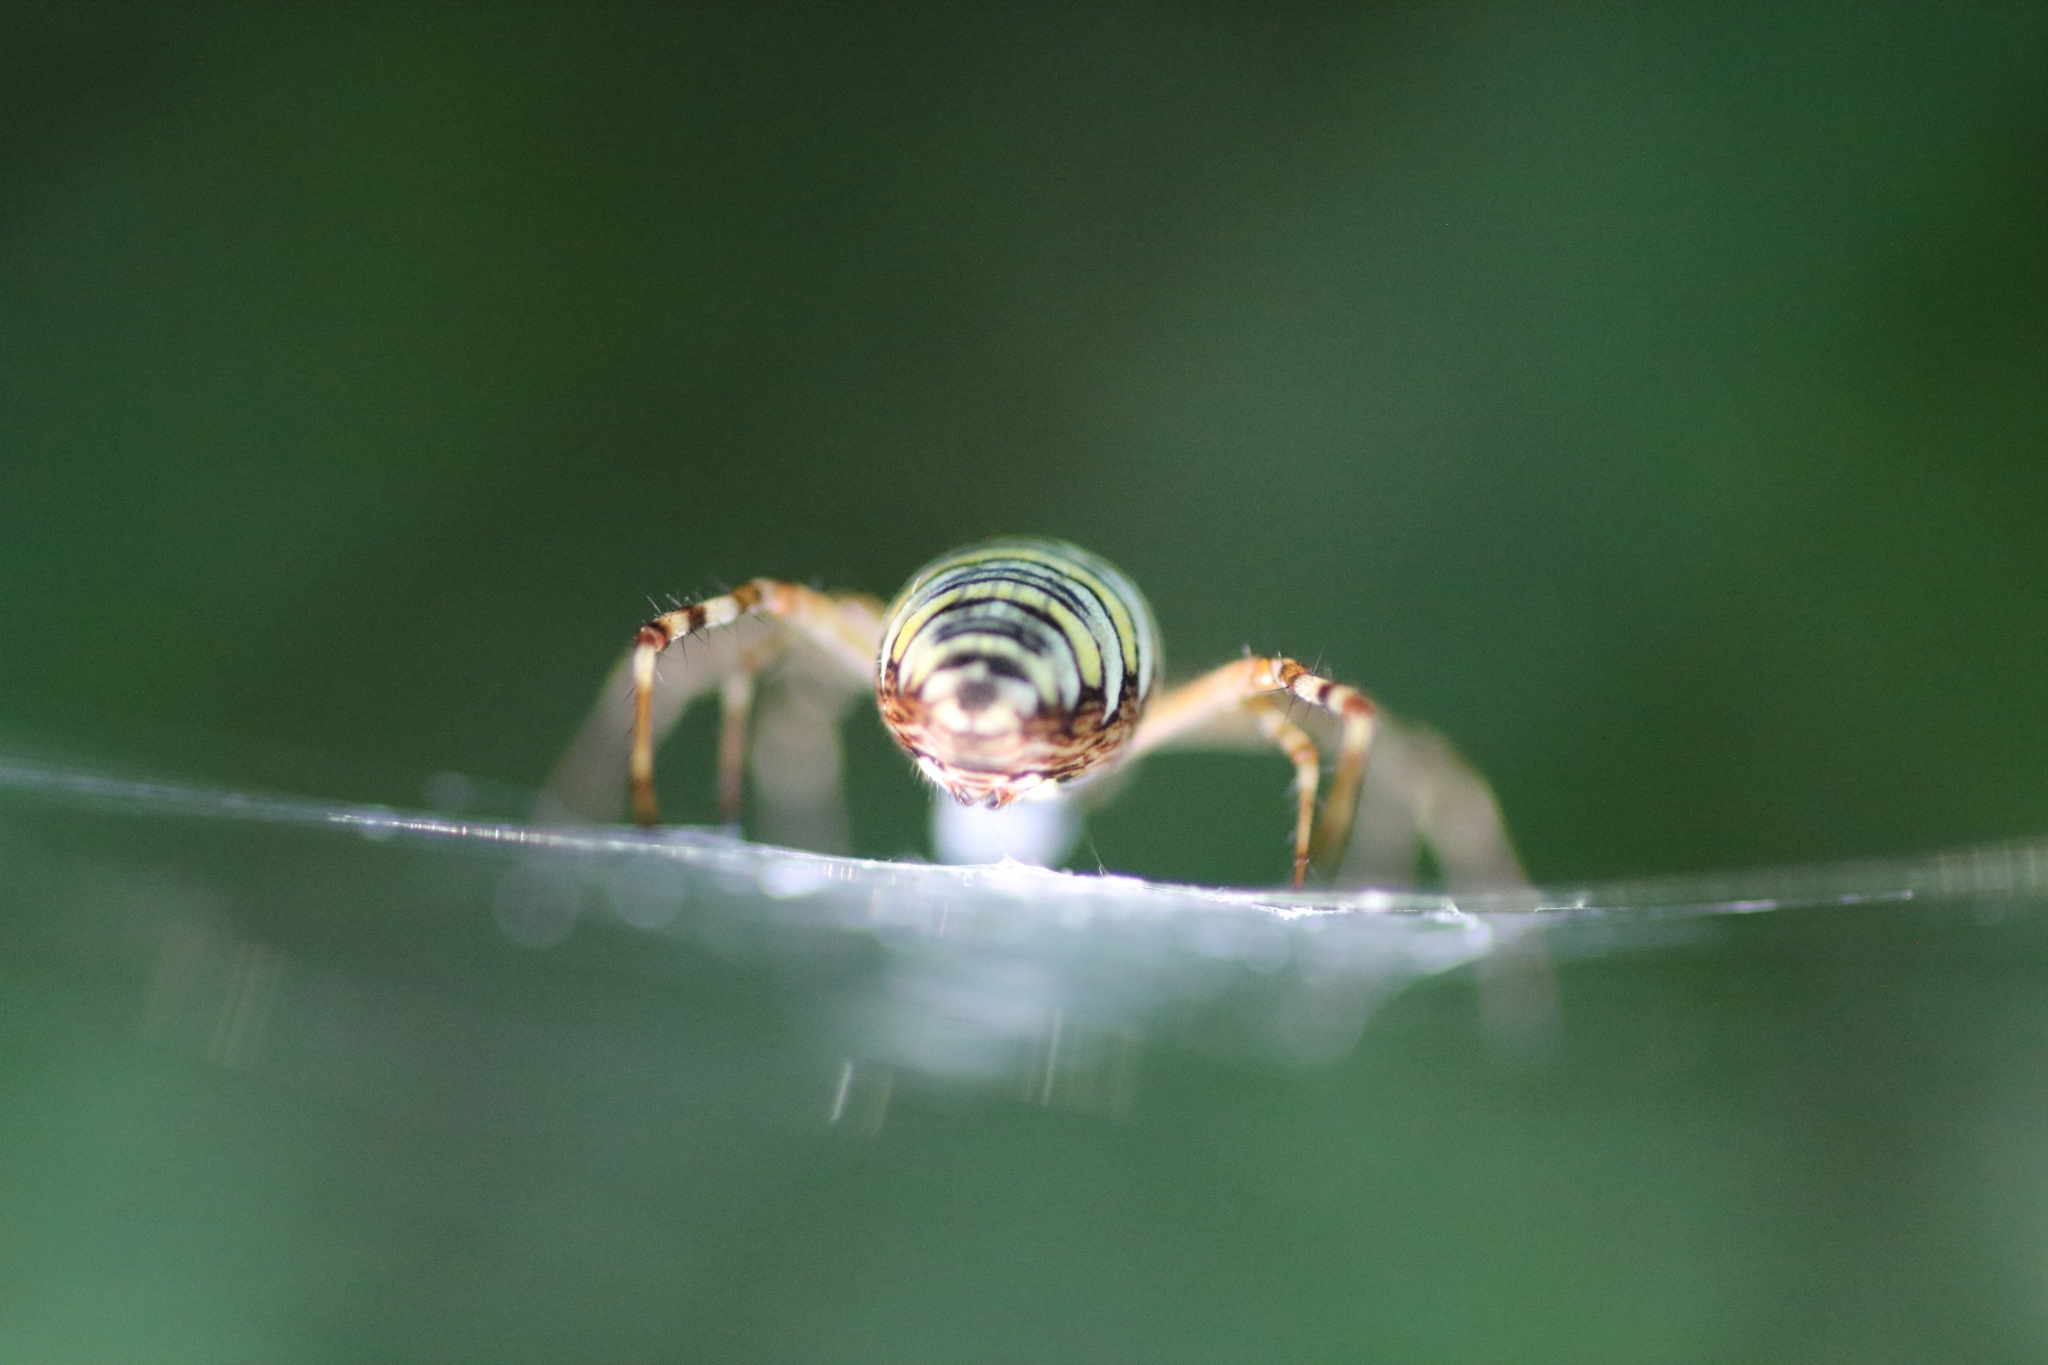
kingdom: Animalia
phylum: Arthropoda
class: Arachnida
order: Araneae
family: Araneidae
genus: Argiope
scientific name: Argiope bruennichi
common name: Wasp spider
